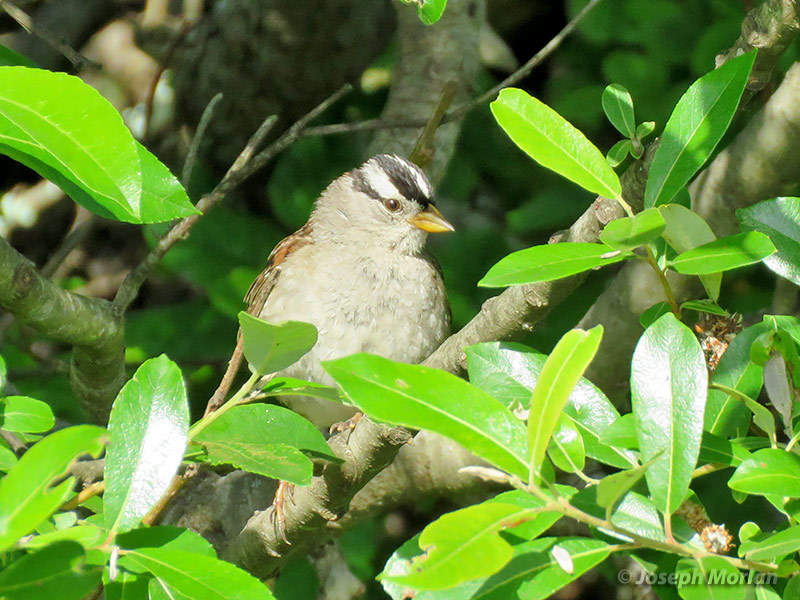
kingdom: Animalia
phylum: Chordata
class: Aves
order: Passeriformes
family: Passerellidae
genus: Zonotrichia
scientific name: Zonotrichia leucophrys
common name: White-crowned sparrow
